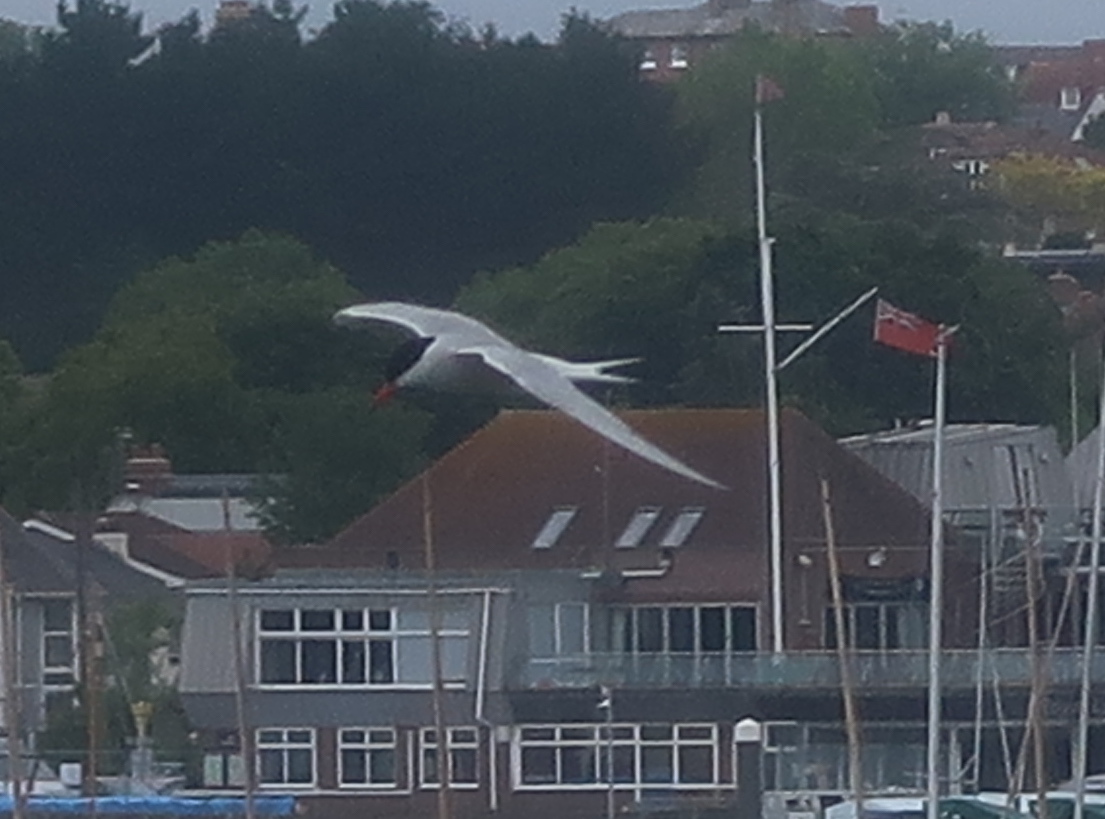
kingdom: Animalia
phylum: Chordata
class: Aves
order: Charadriiformes
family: Laridae
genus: Sterna
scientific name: Sterna hirundo
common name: Common tern
